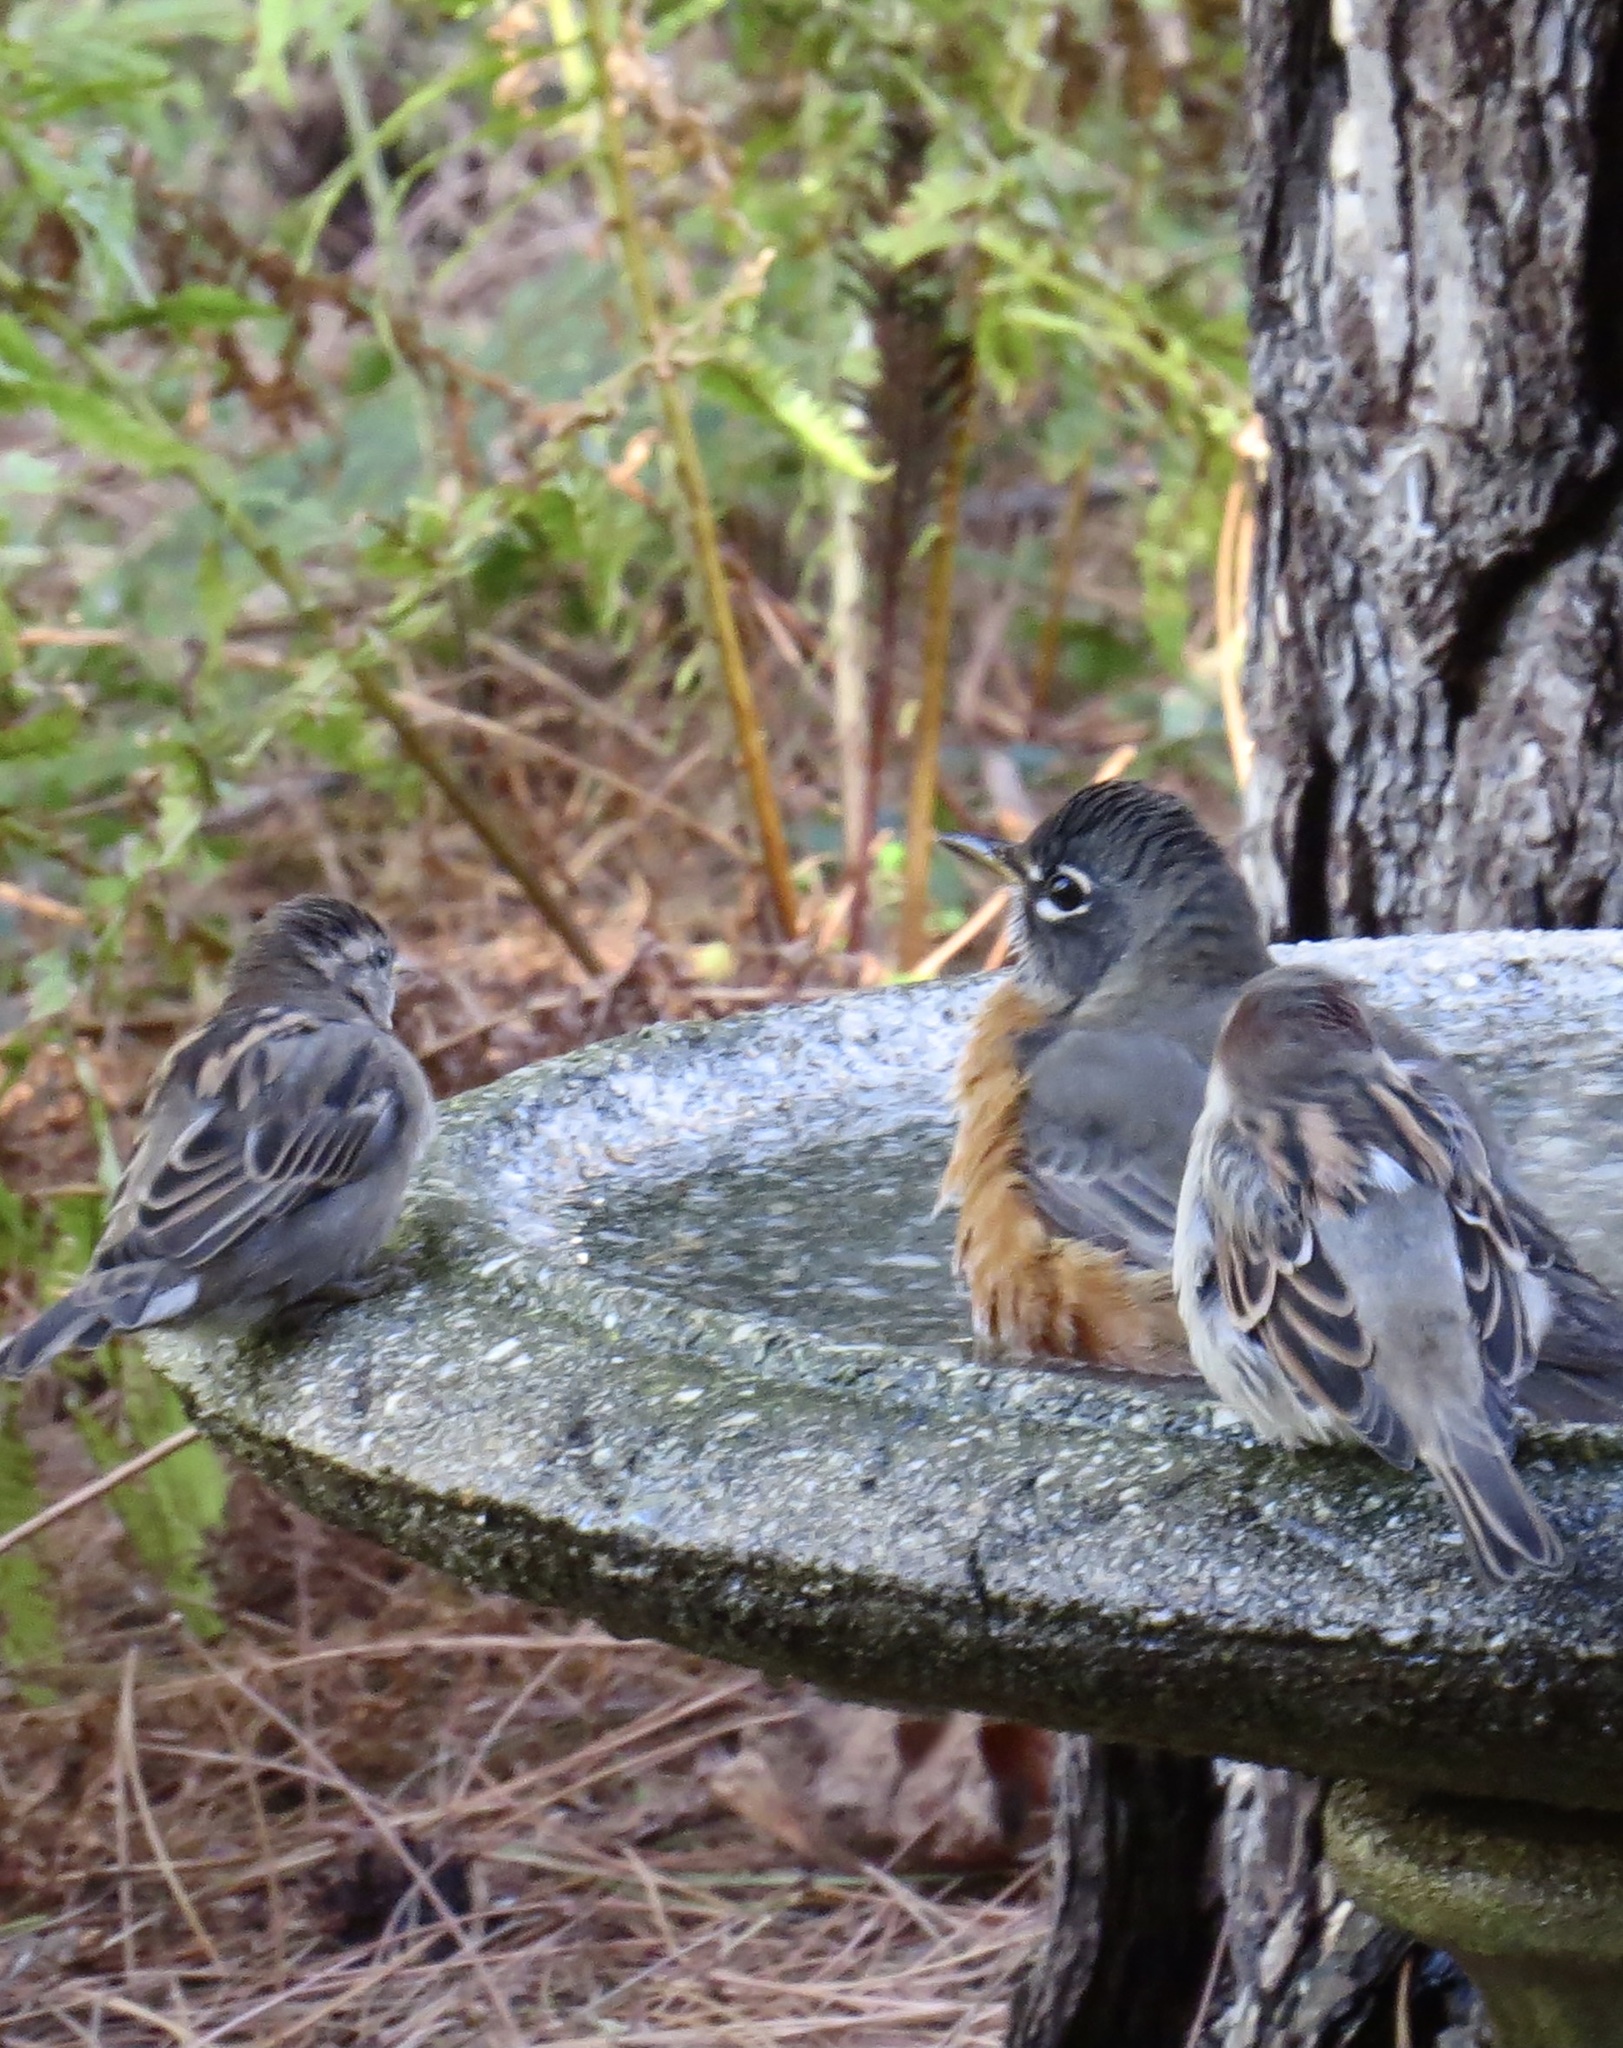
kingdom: Animalia
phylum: Chordata
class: Aves
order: Passeriformes
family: Turdidae
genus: Turdus
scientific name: Turdus migratorius
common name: American robin
